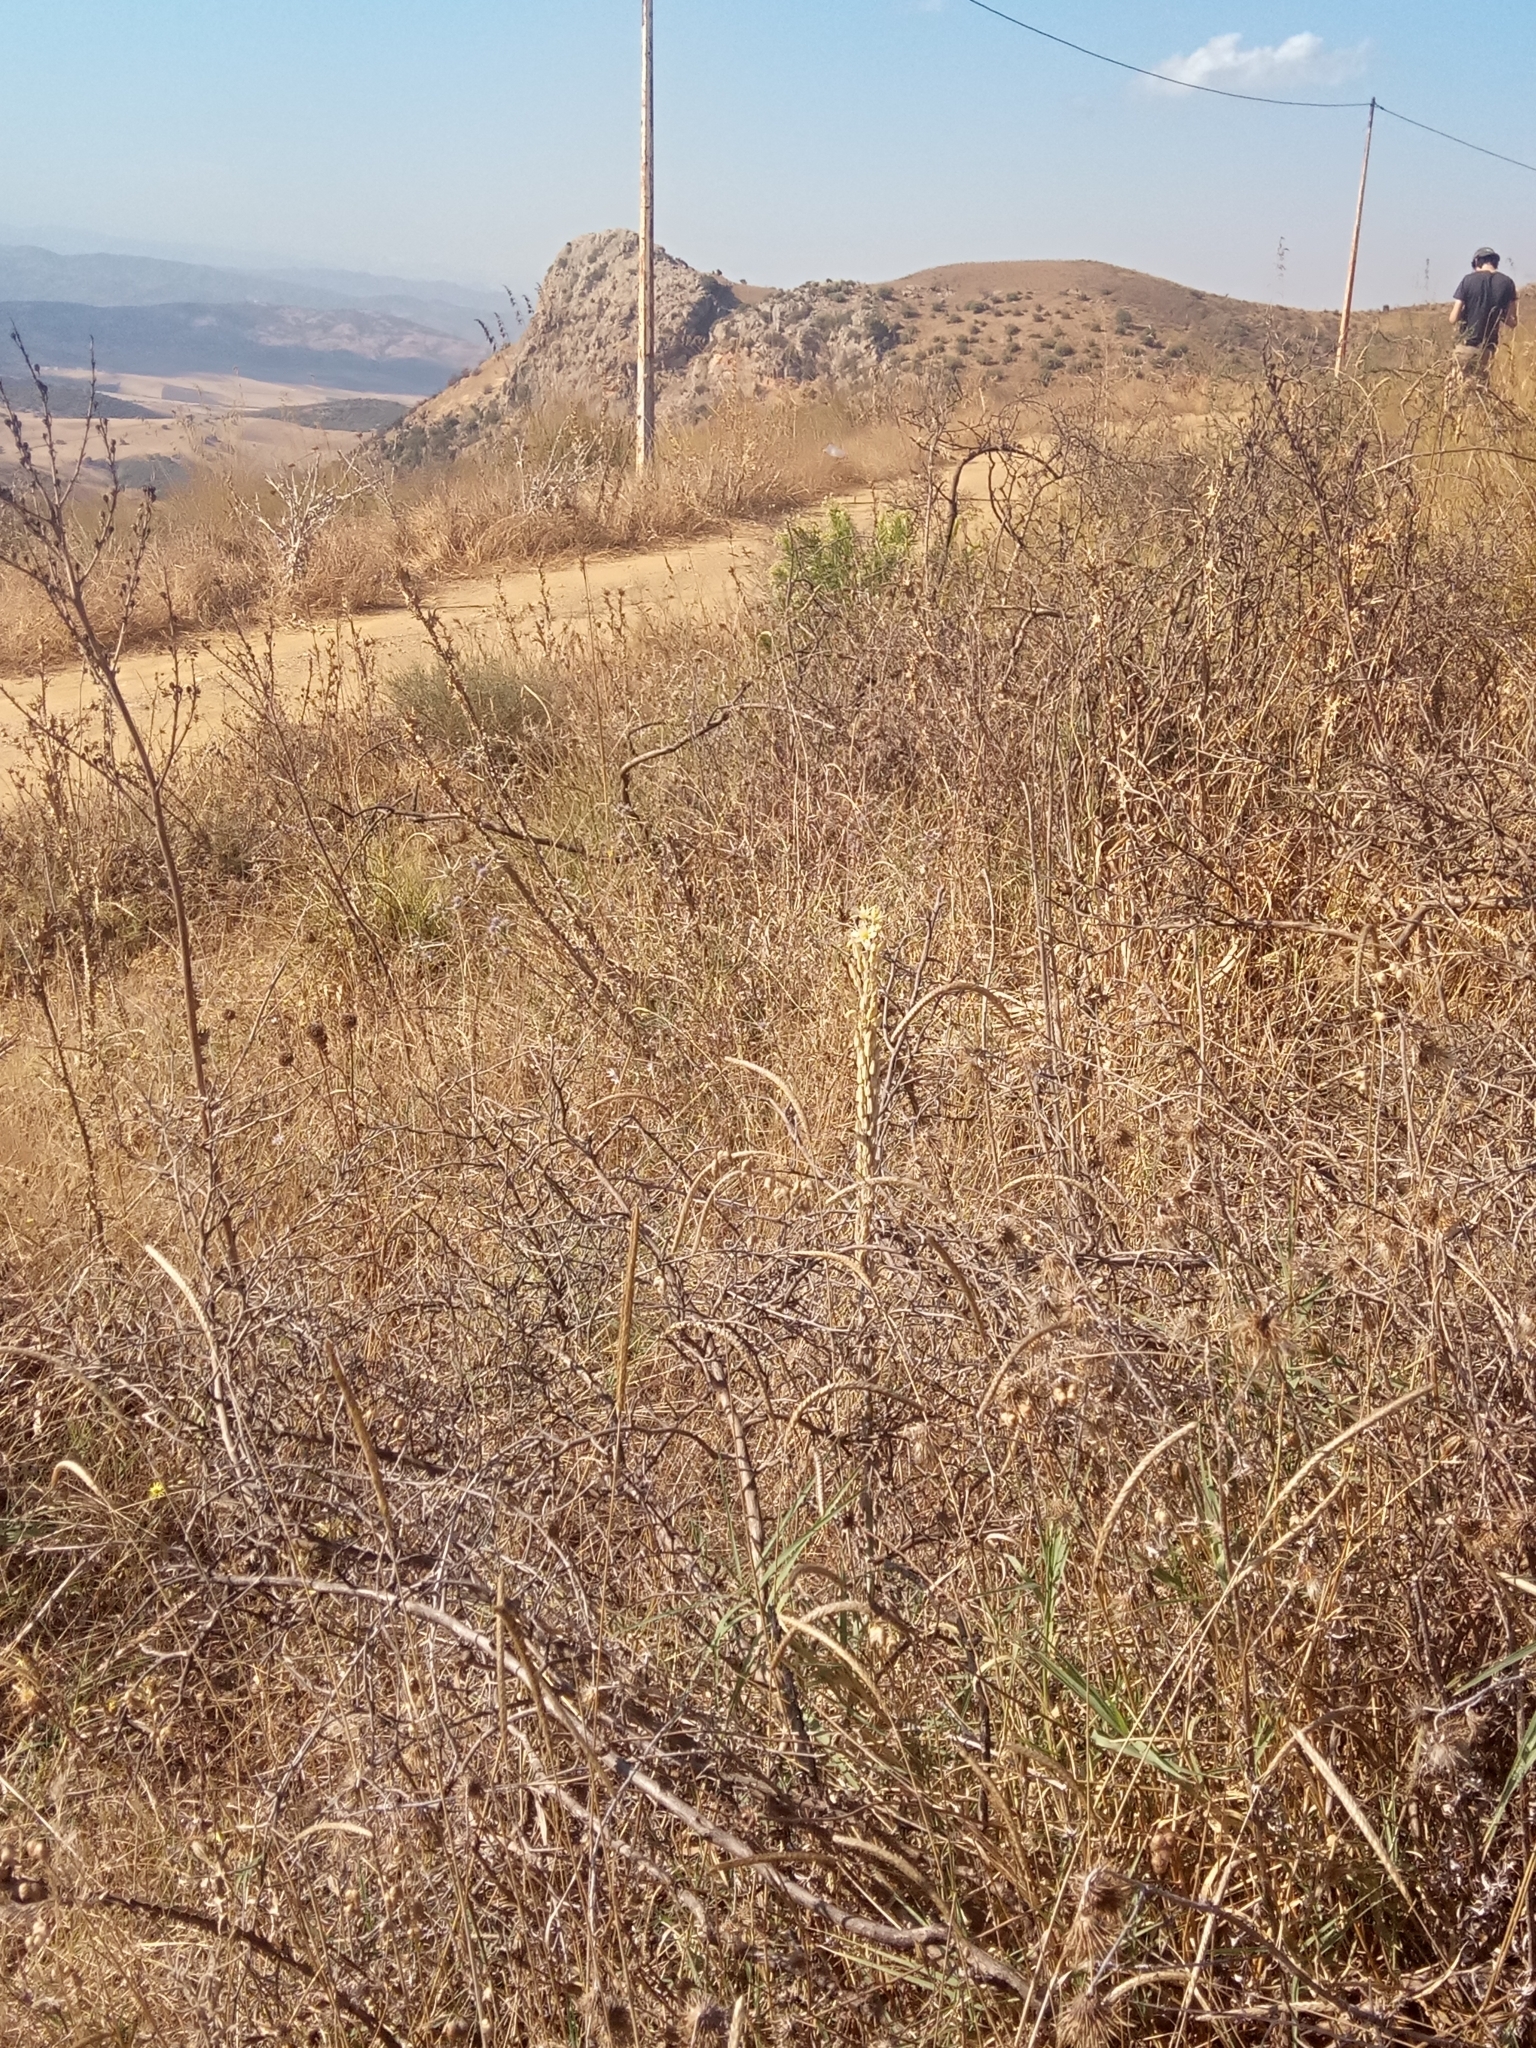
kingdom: Plantae
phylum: Tracheophyta
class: Liliopsida
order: Asparagales
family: Asparagaceae
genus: Drimia
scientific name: Drimia anthericoides
